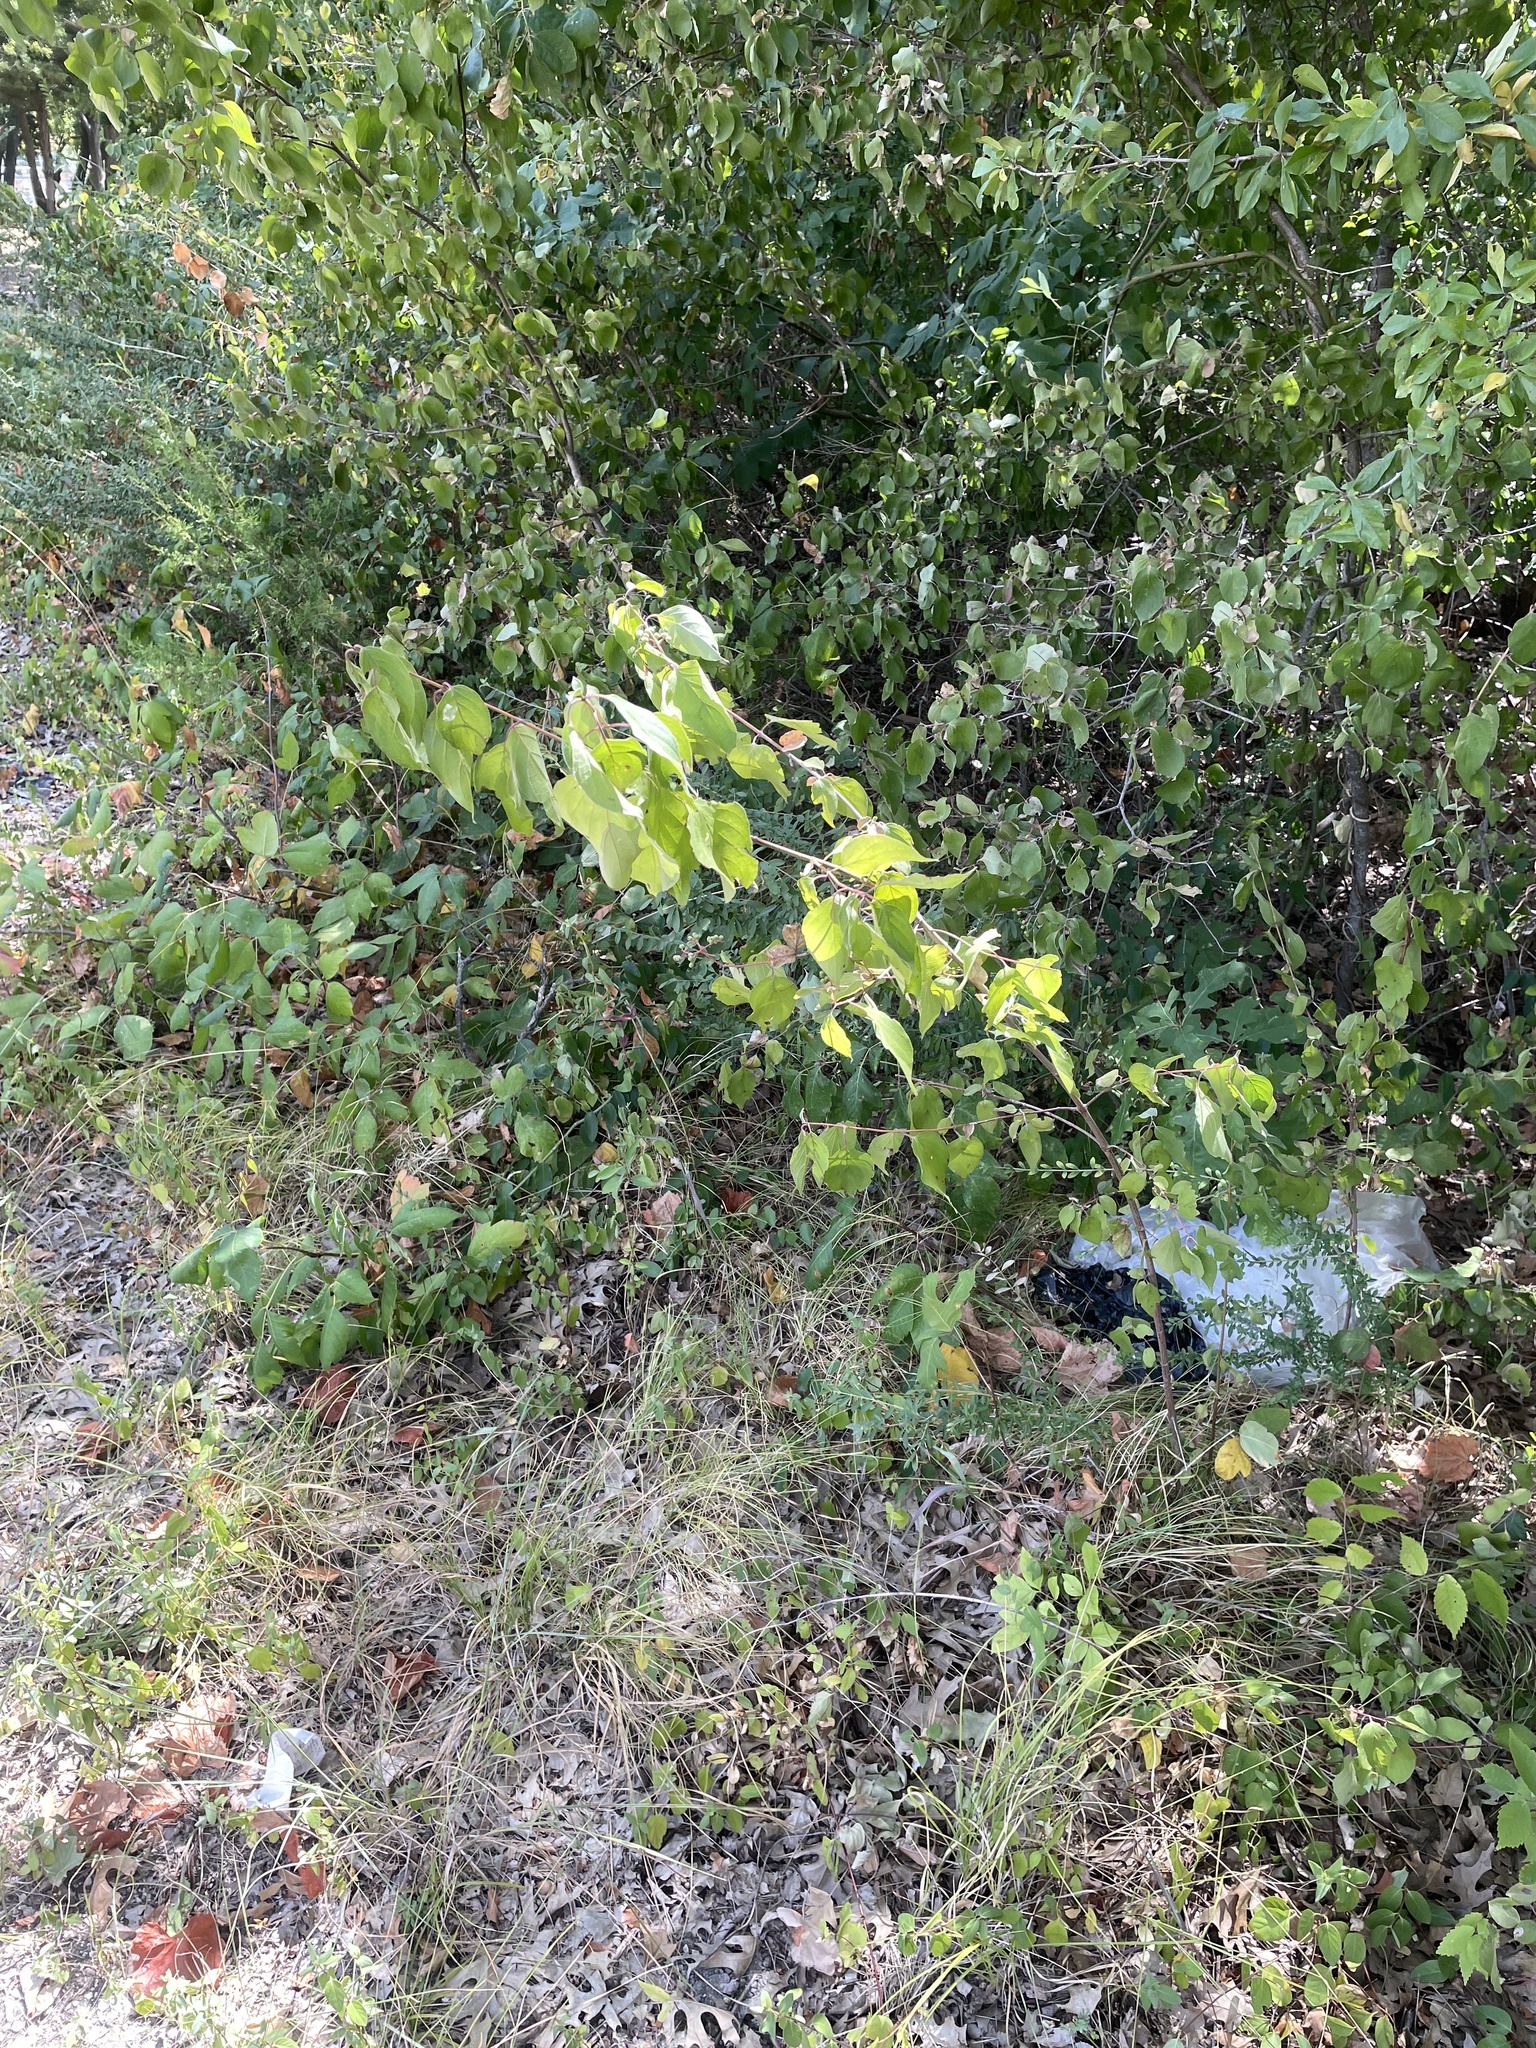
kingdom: Plantae
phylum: Tracheophyta
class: Magnoliopsida
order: Cornales
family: Cornaceae
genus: Cornus
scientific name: Cornus drummondii
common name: Rough-leaf dogwood
